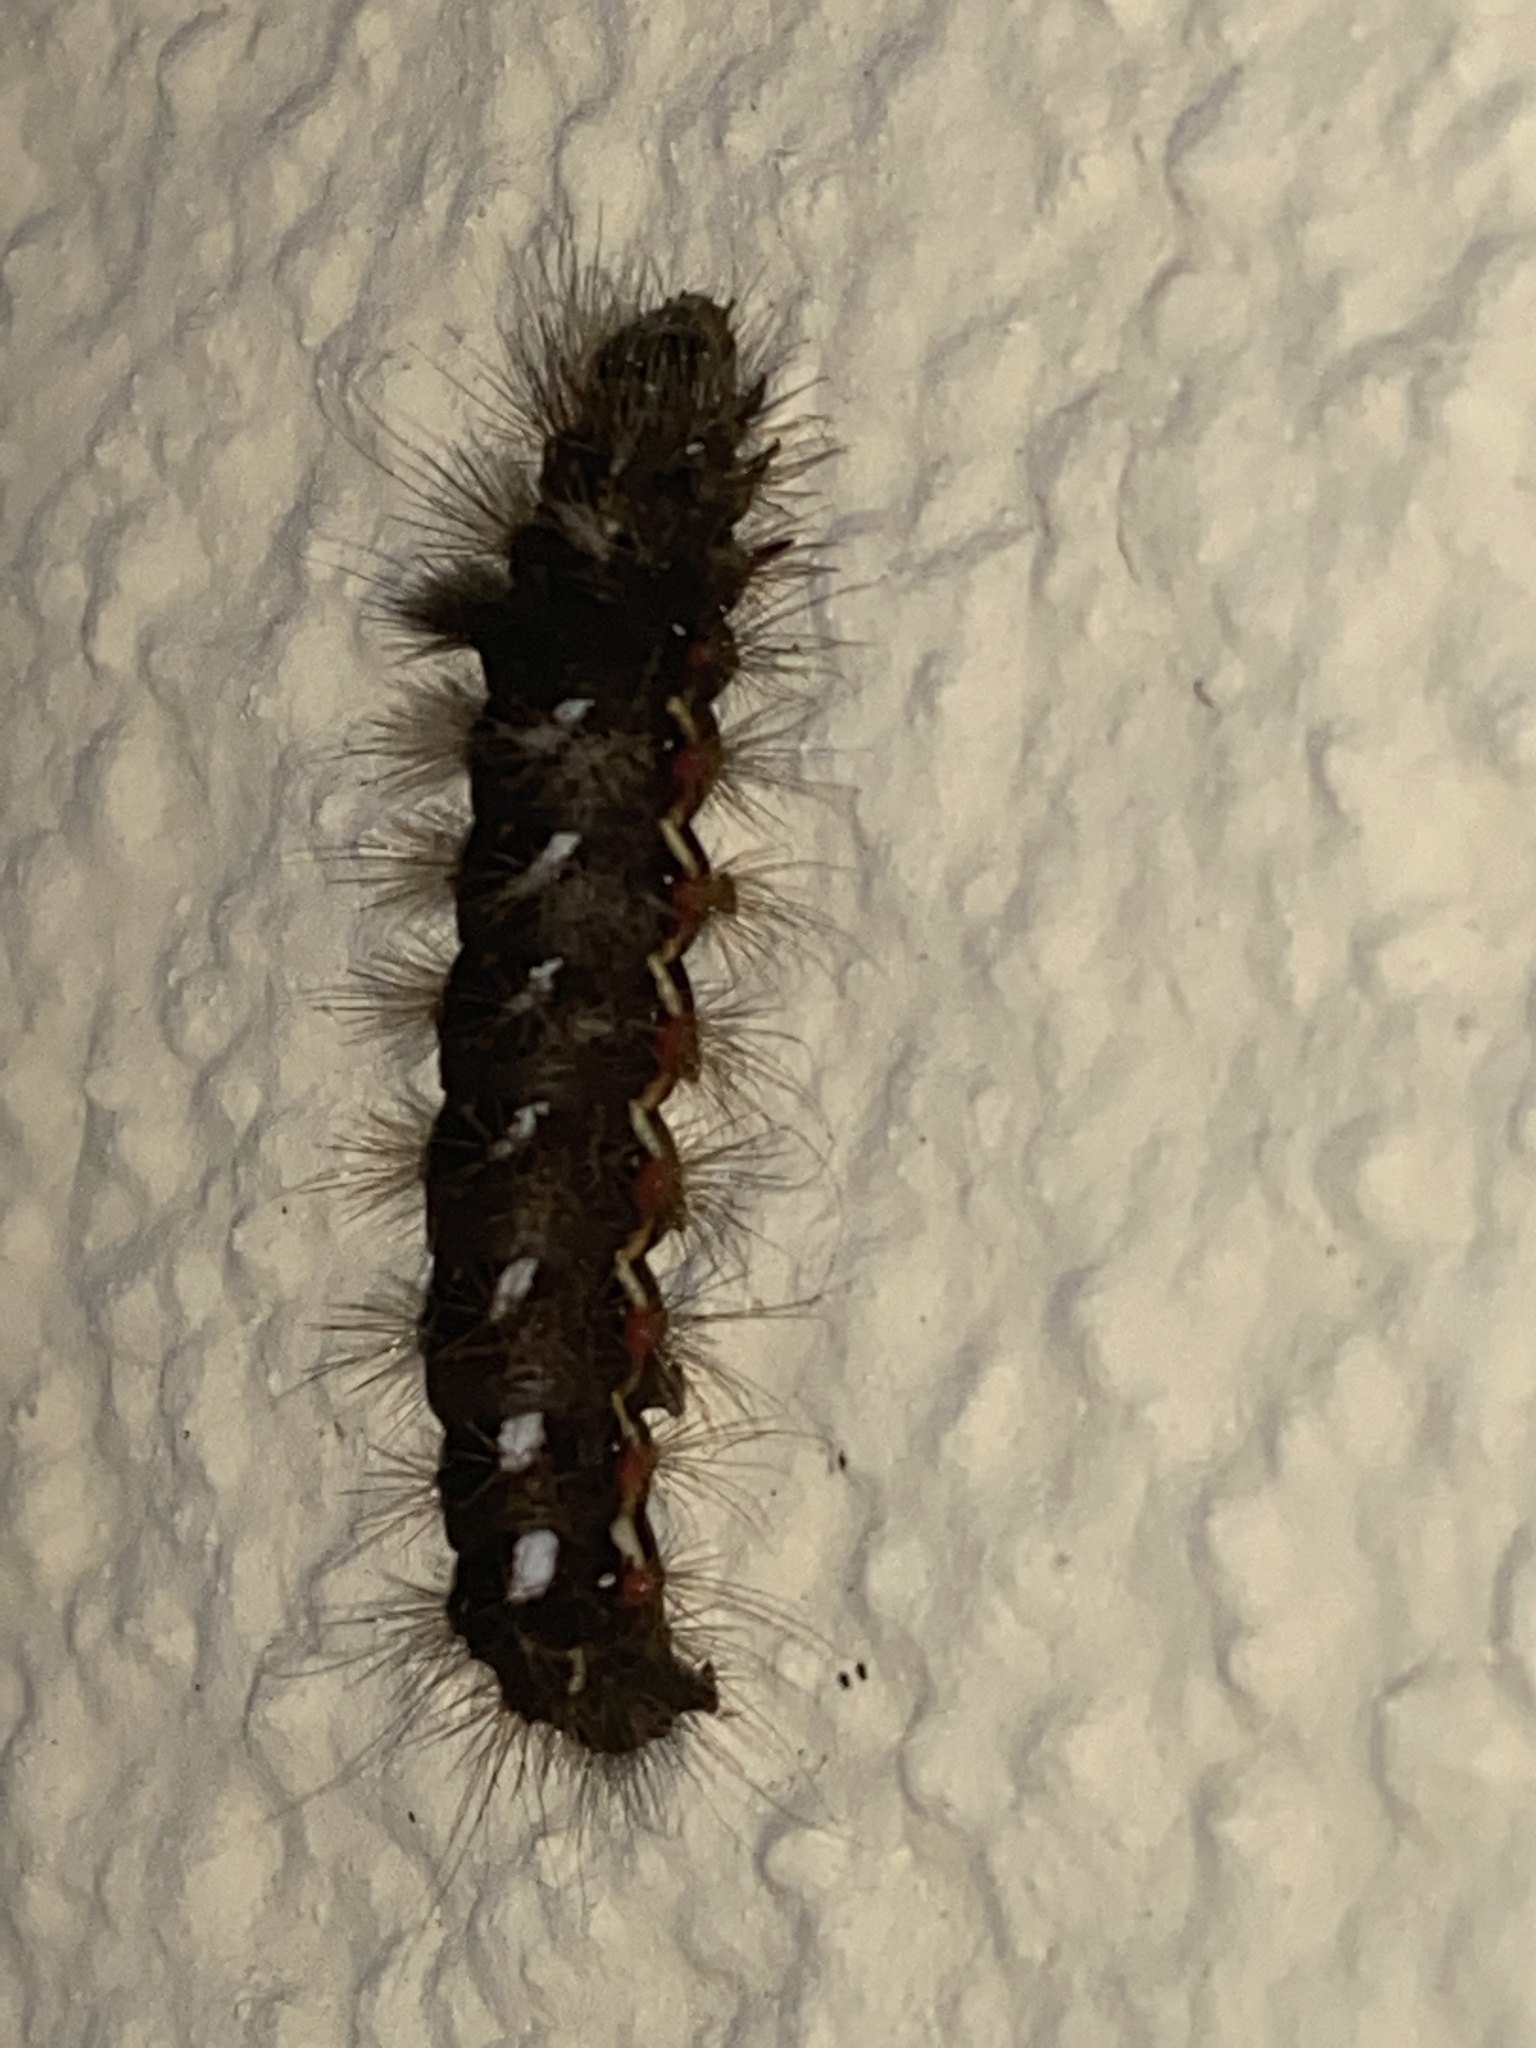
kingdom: Animalia
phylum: Arthropoda
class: Insecta
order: Lepidoptera
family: Noctuidae
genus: Acronicta
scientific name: Acronicta rumicis
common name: Knot grass
